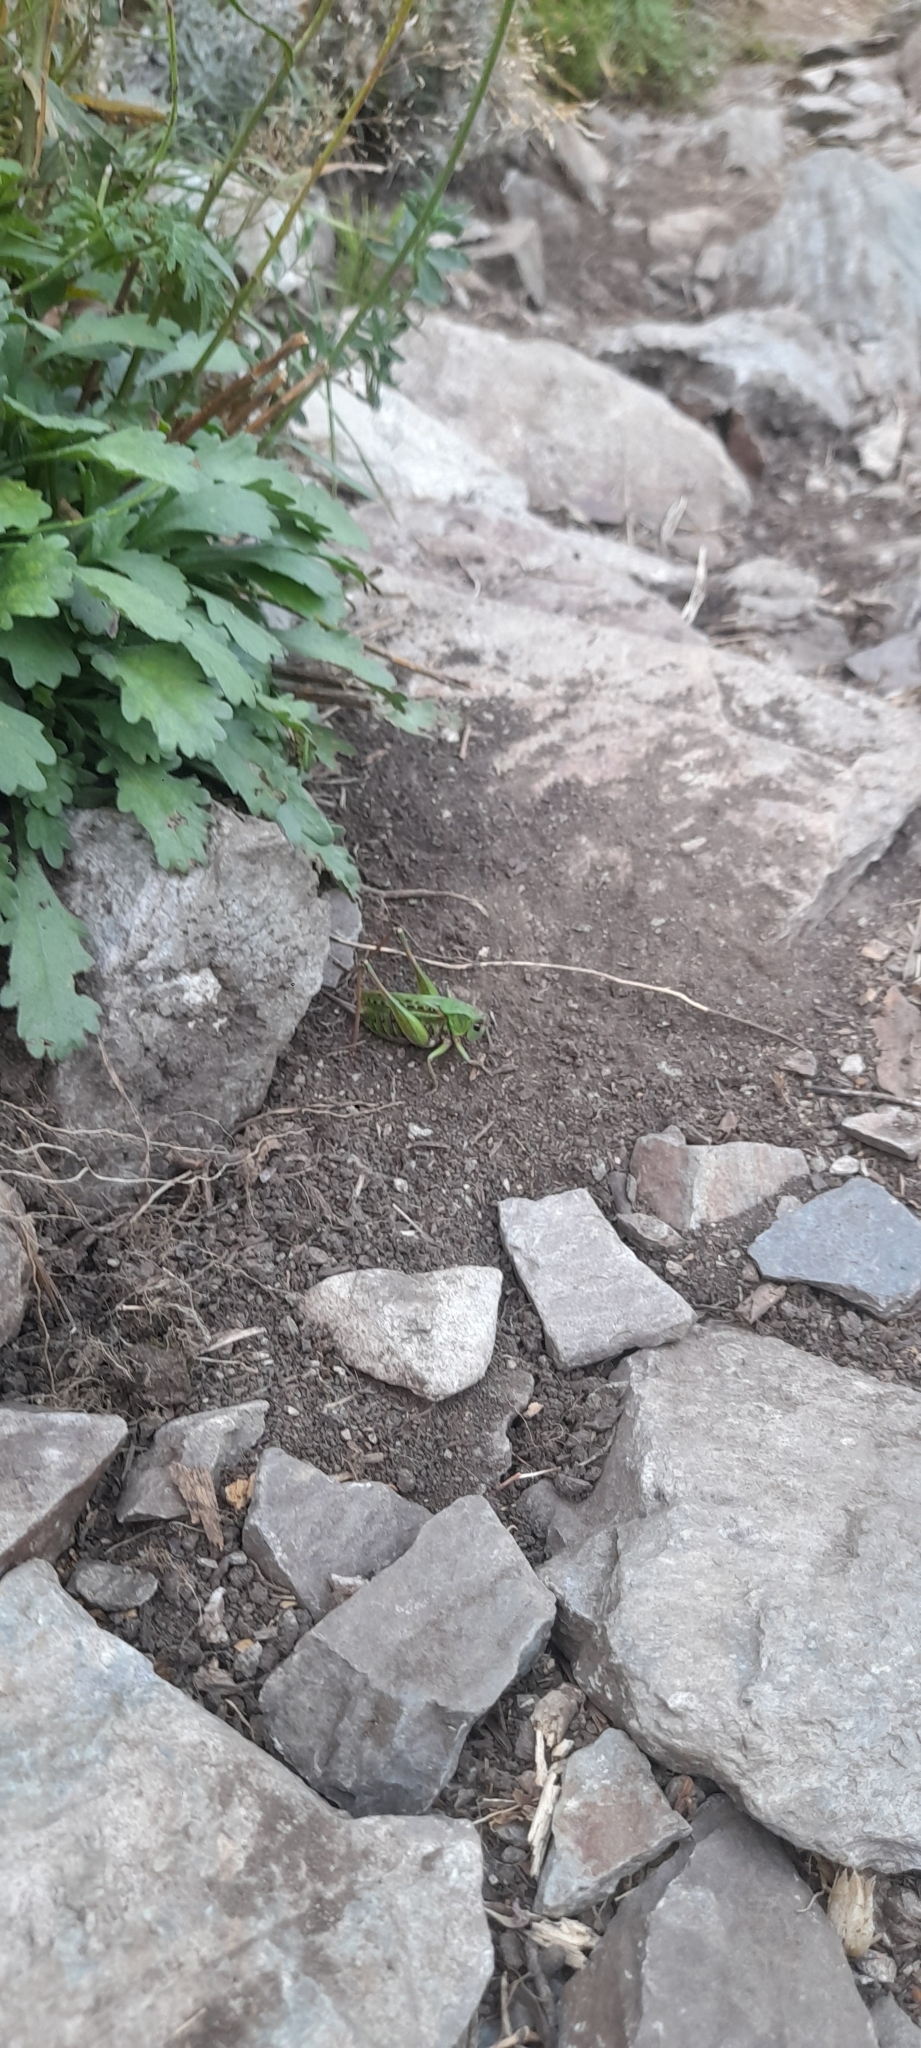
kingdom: Animalia
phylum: Arthropoda
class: Insecta
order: Orthoptera
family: Tettigoniidae
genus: Decticus
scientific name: Decticus verrucivorus
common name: Wart-biter
